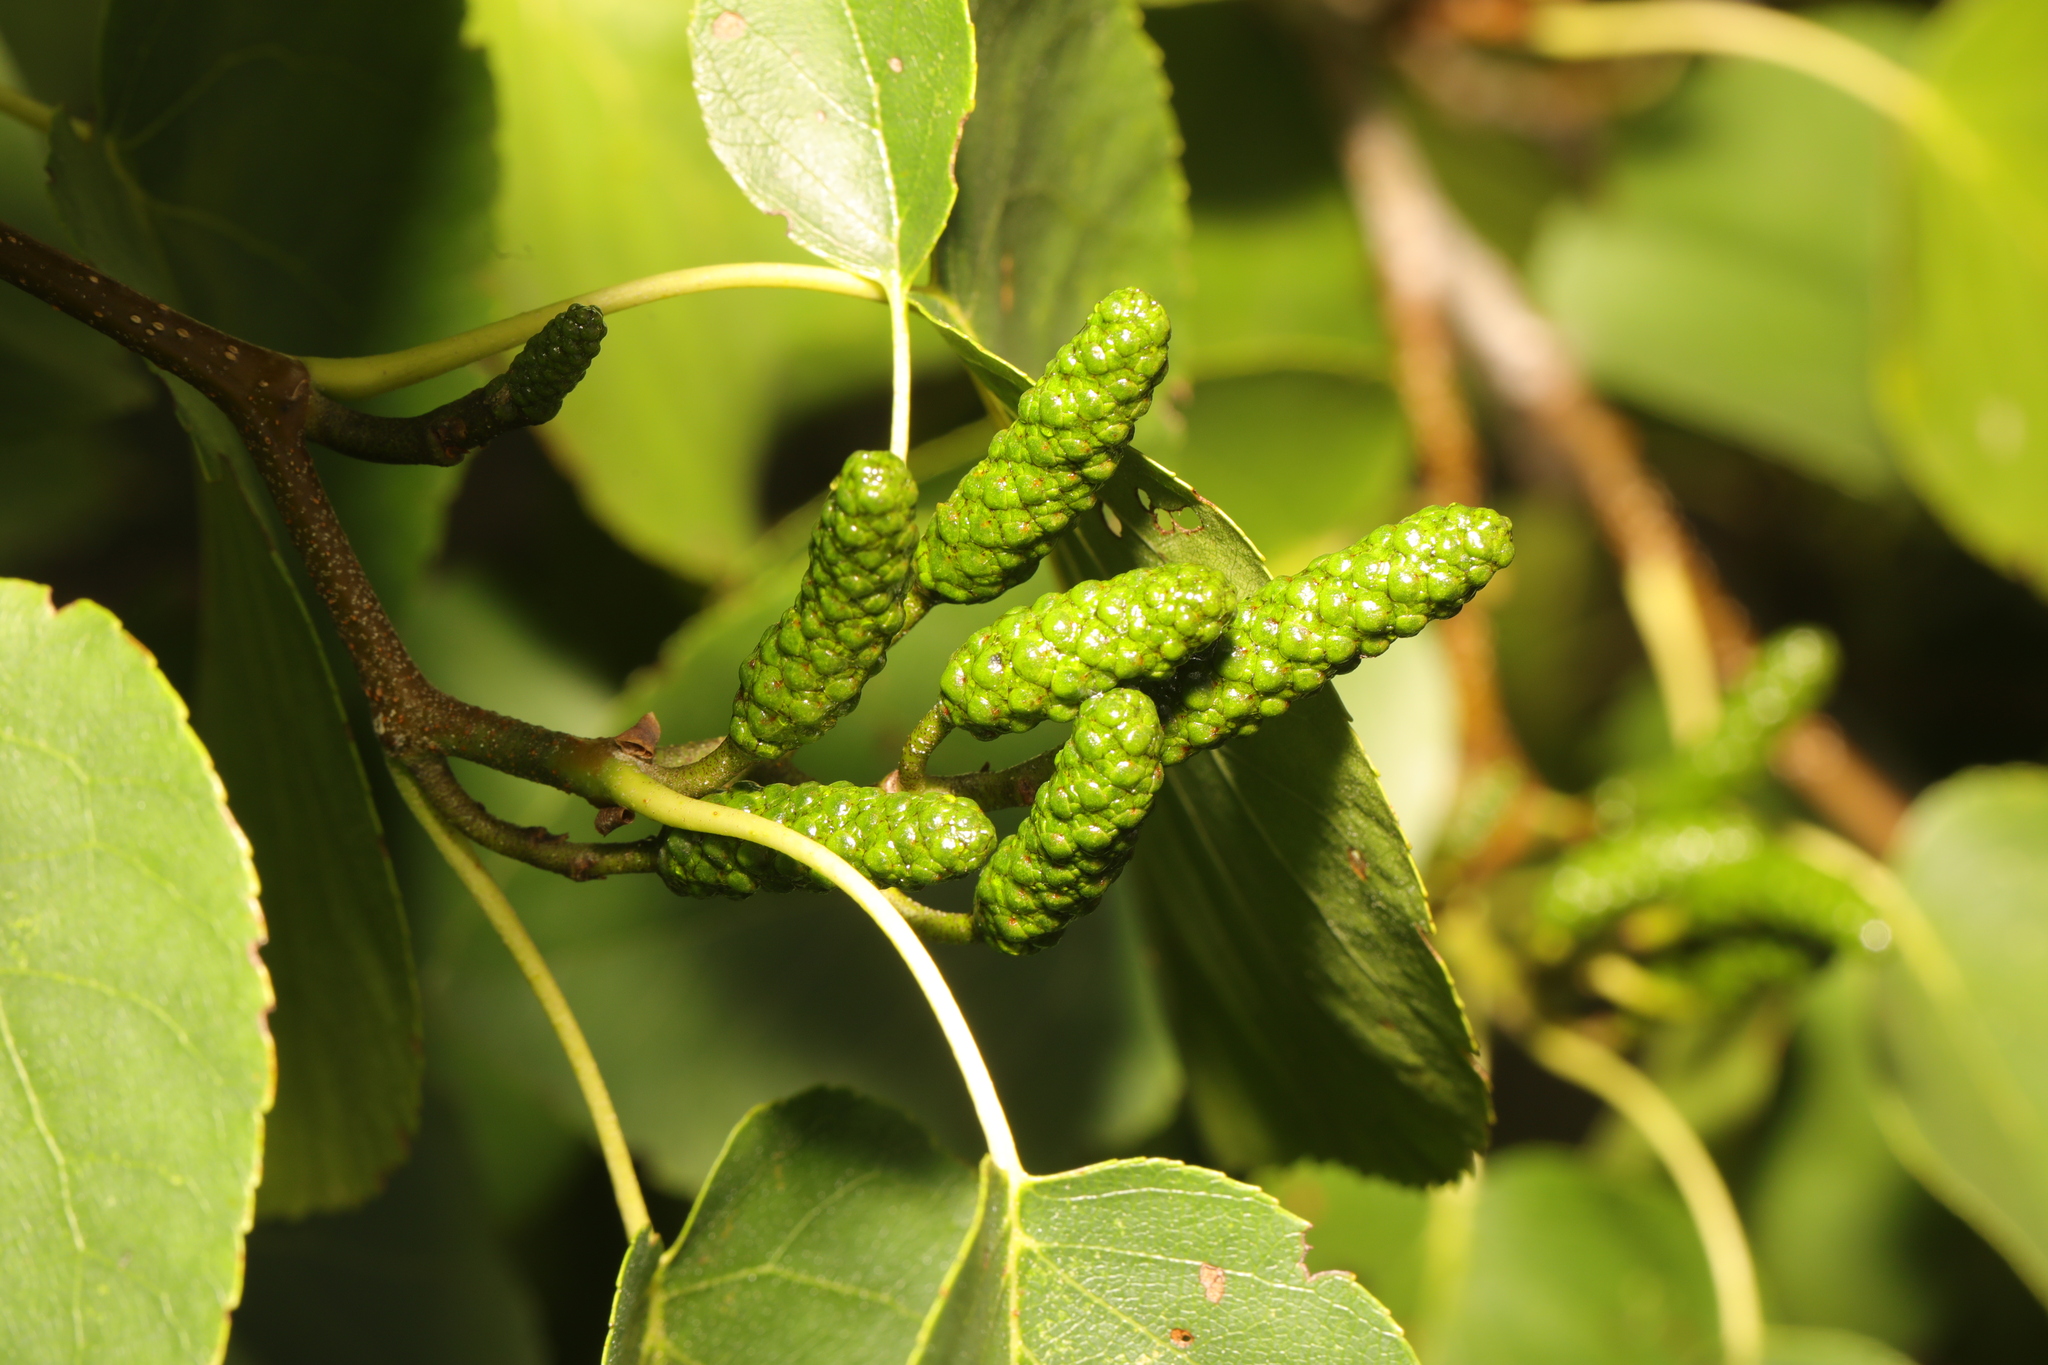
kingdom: Plantae
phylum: Tracheophyta
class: Magnoliopsida
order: Fagales
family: Betulaceae
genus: Alnus
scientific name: Alnus cordata
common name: Italian alder
